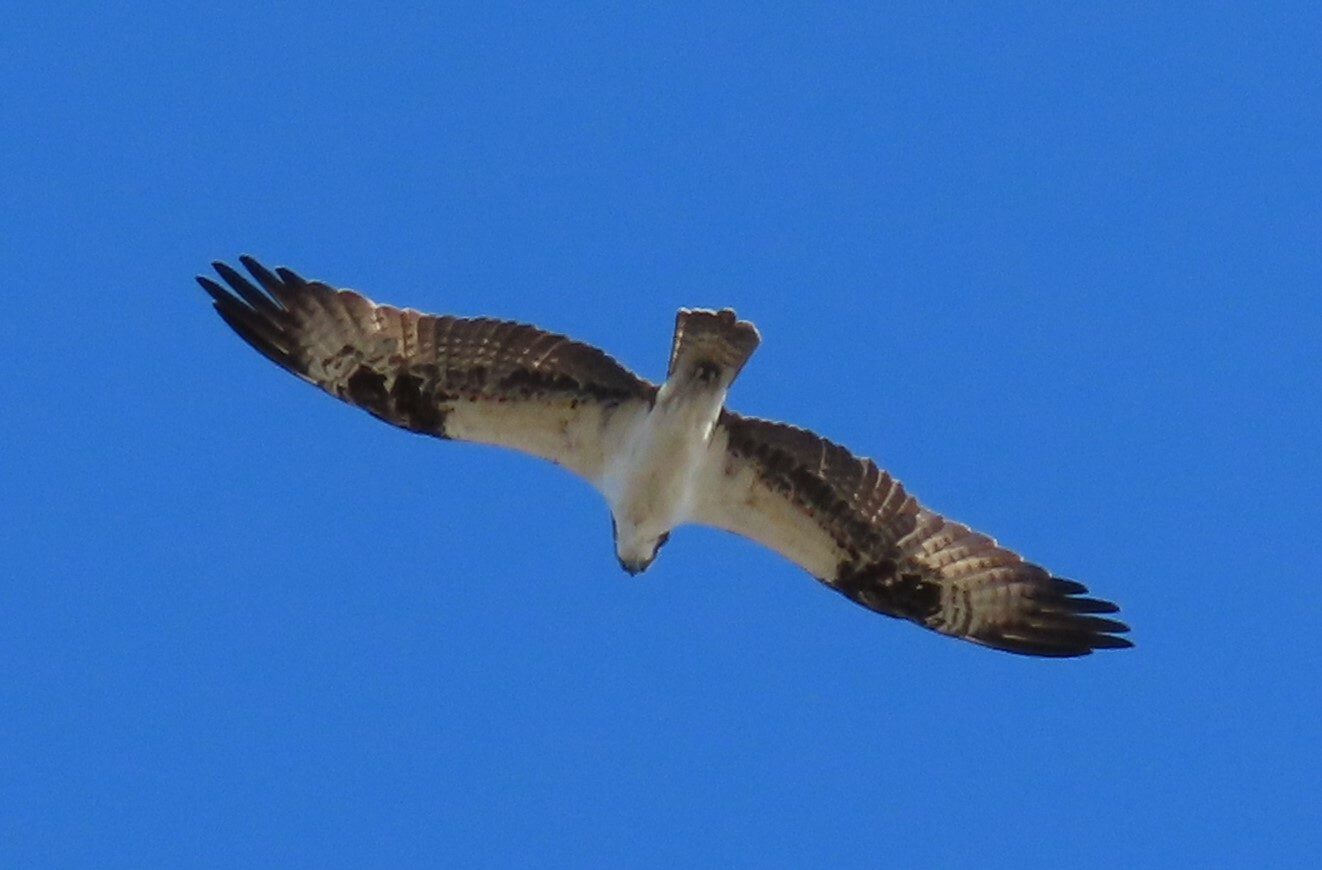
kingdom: Animalia
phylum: Chordata
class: Aves
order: Accipitriformes
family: Pandionidae
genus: Pandion
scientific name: Pandion haliaetus
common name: Osprey
